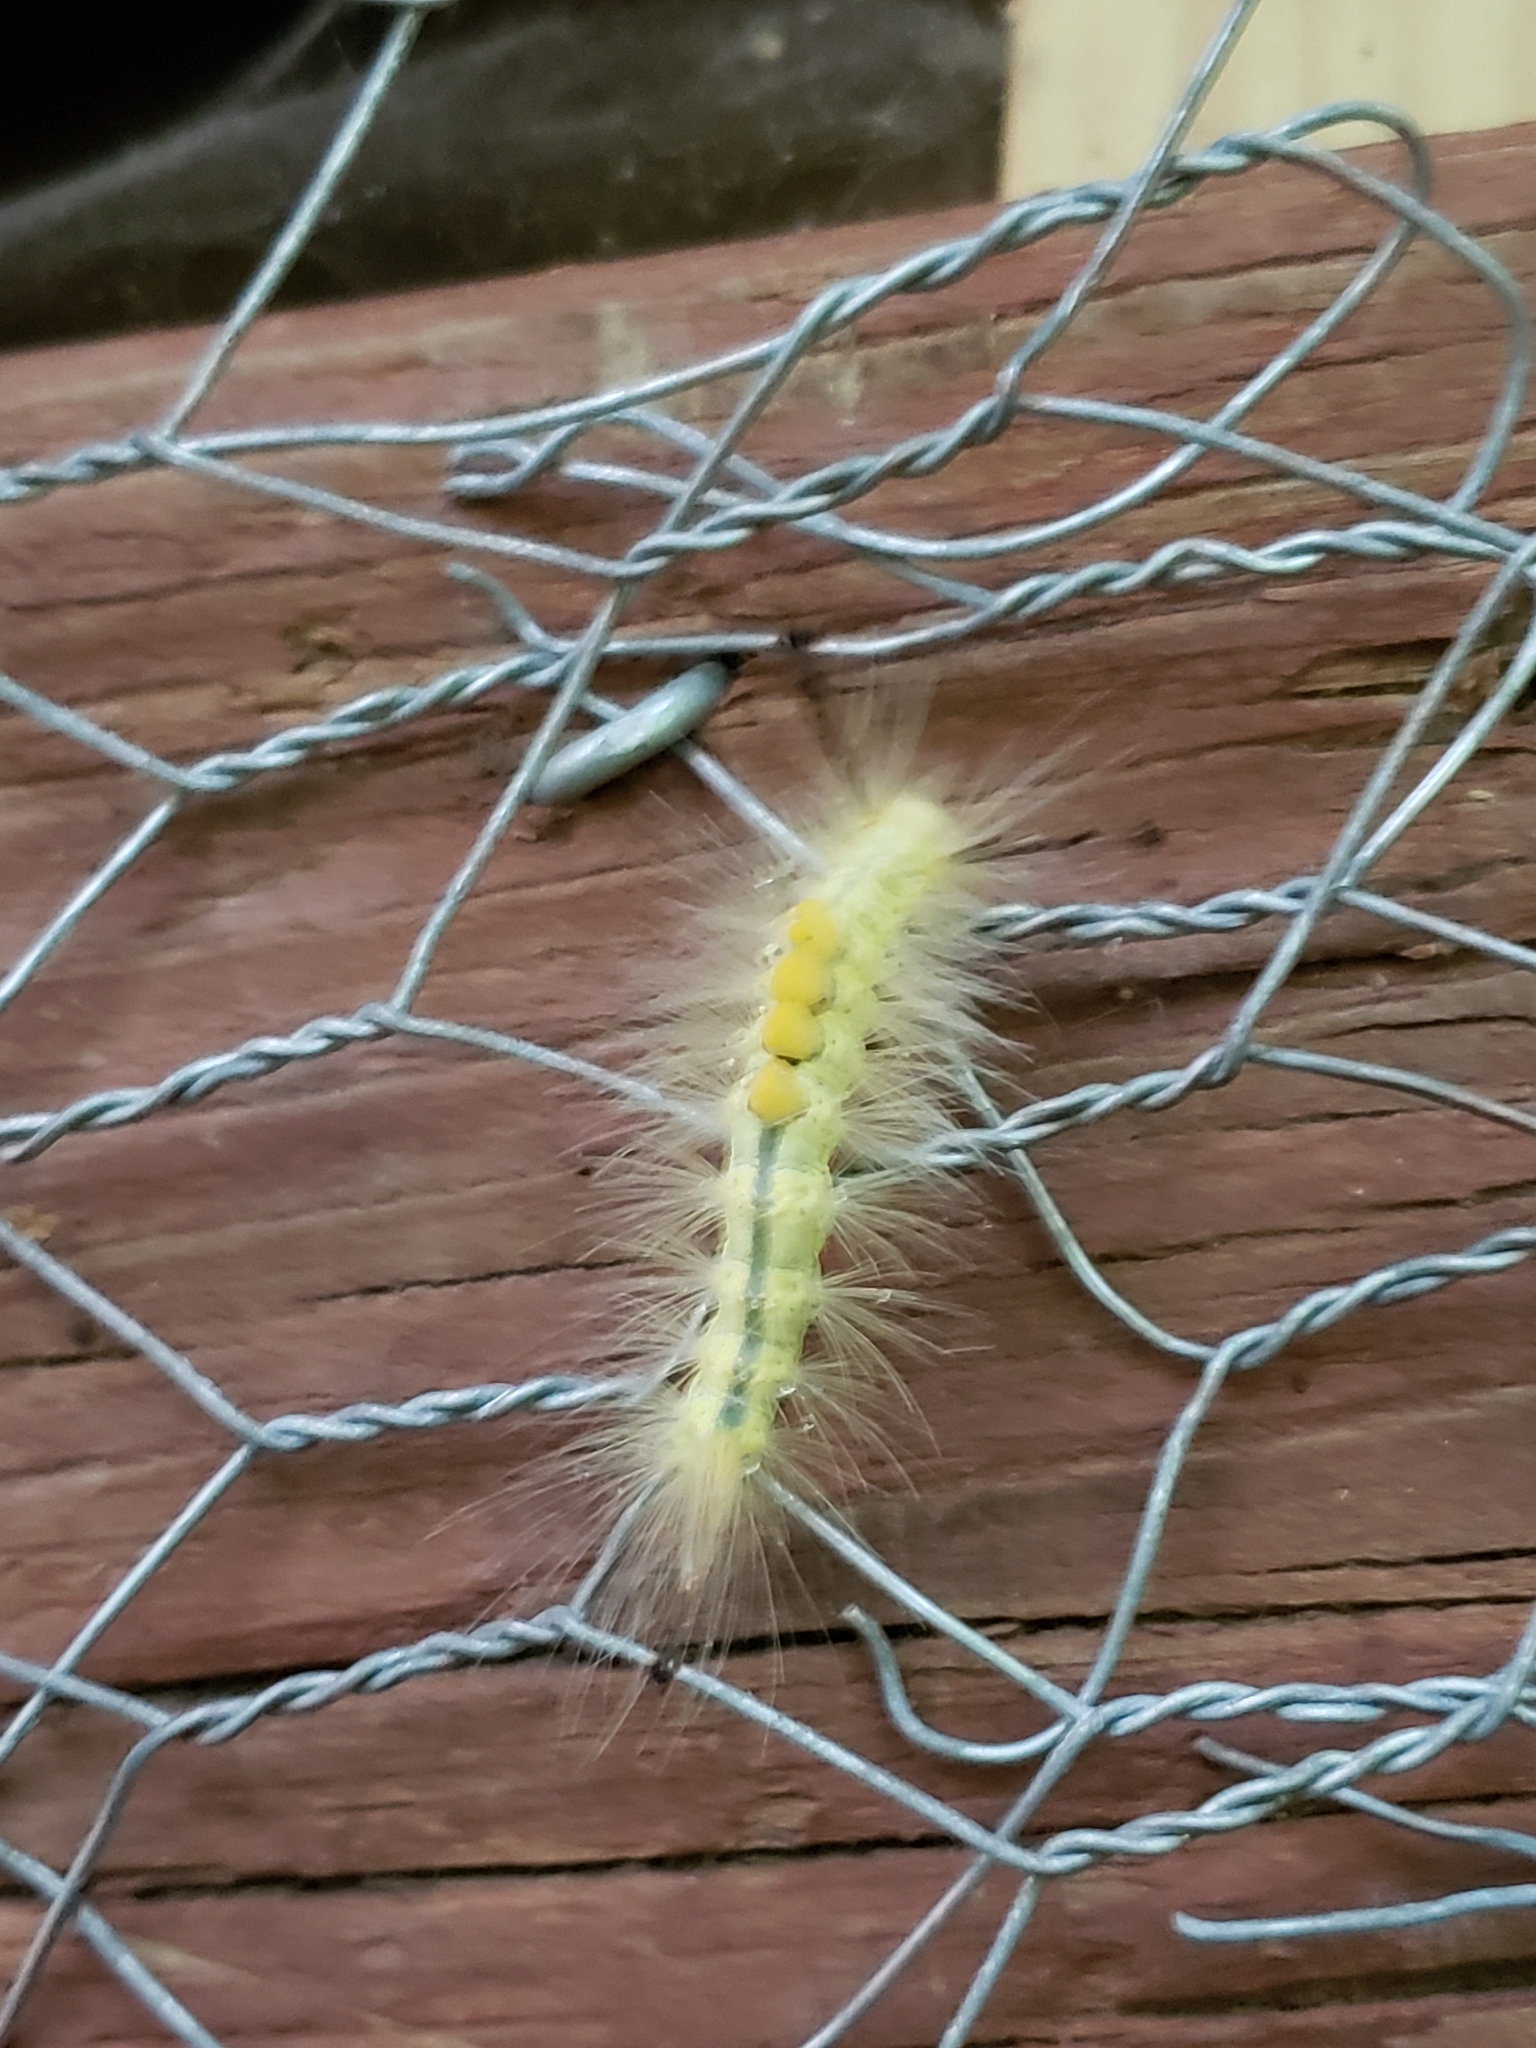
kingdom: Animalia
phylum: Arthropoda
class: Insecta
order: Lepidoptera
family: Erebidae
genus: Orgyia
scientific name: Orgyia definita
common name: Definite tussock moth
